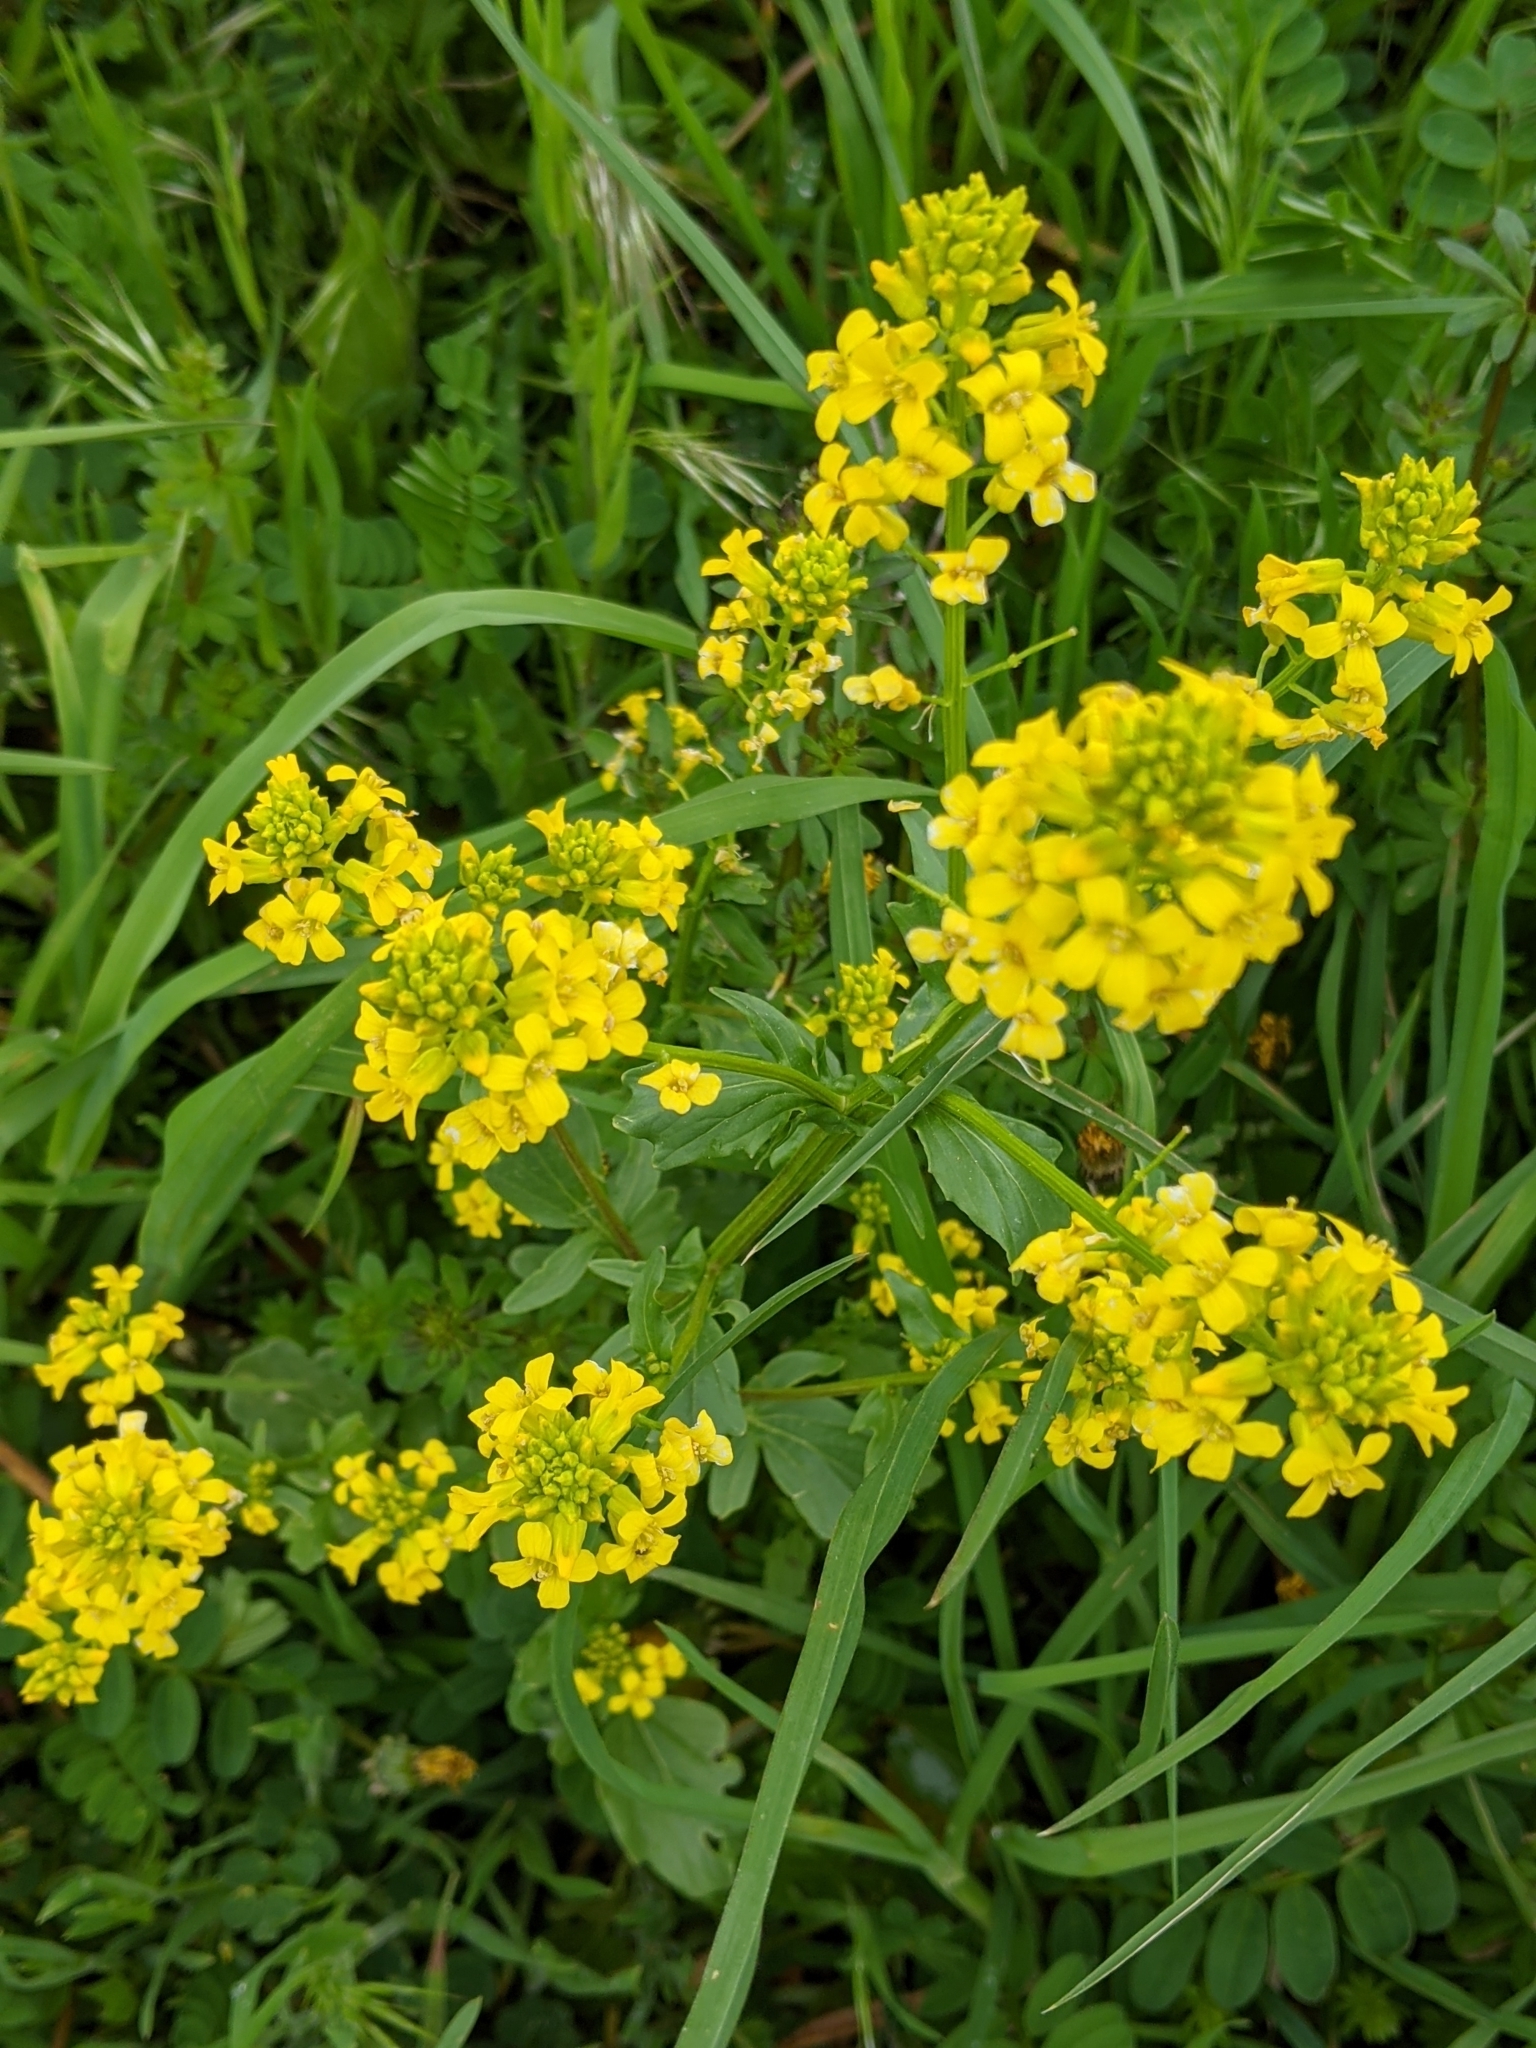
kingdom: Plantae
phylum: Tracheophyta
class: Magnoliopsida
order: Brassicales
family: Brassicaceae
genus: Barbarea
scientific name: Barbarea vulgaris
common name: Cressy-greens
